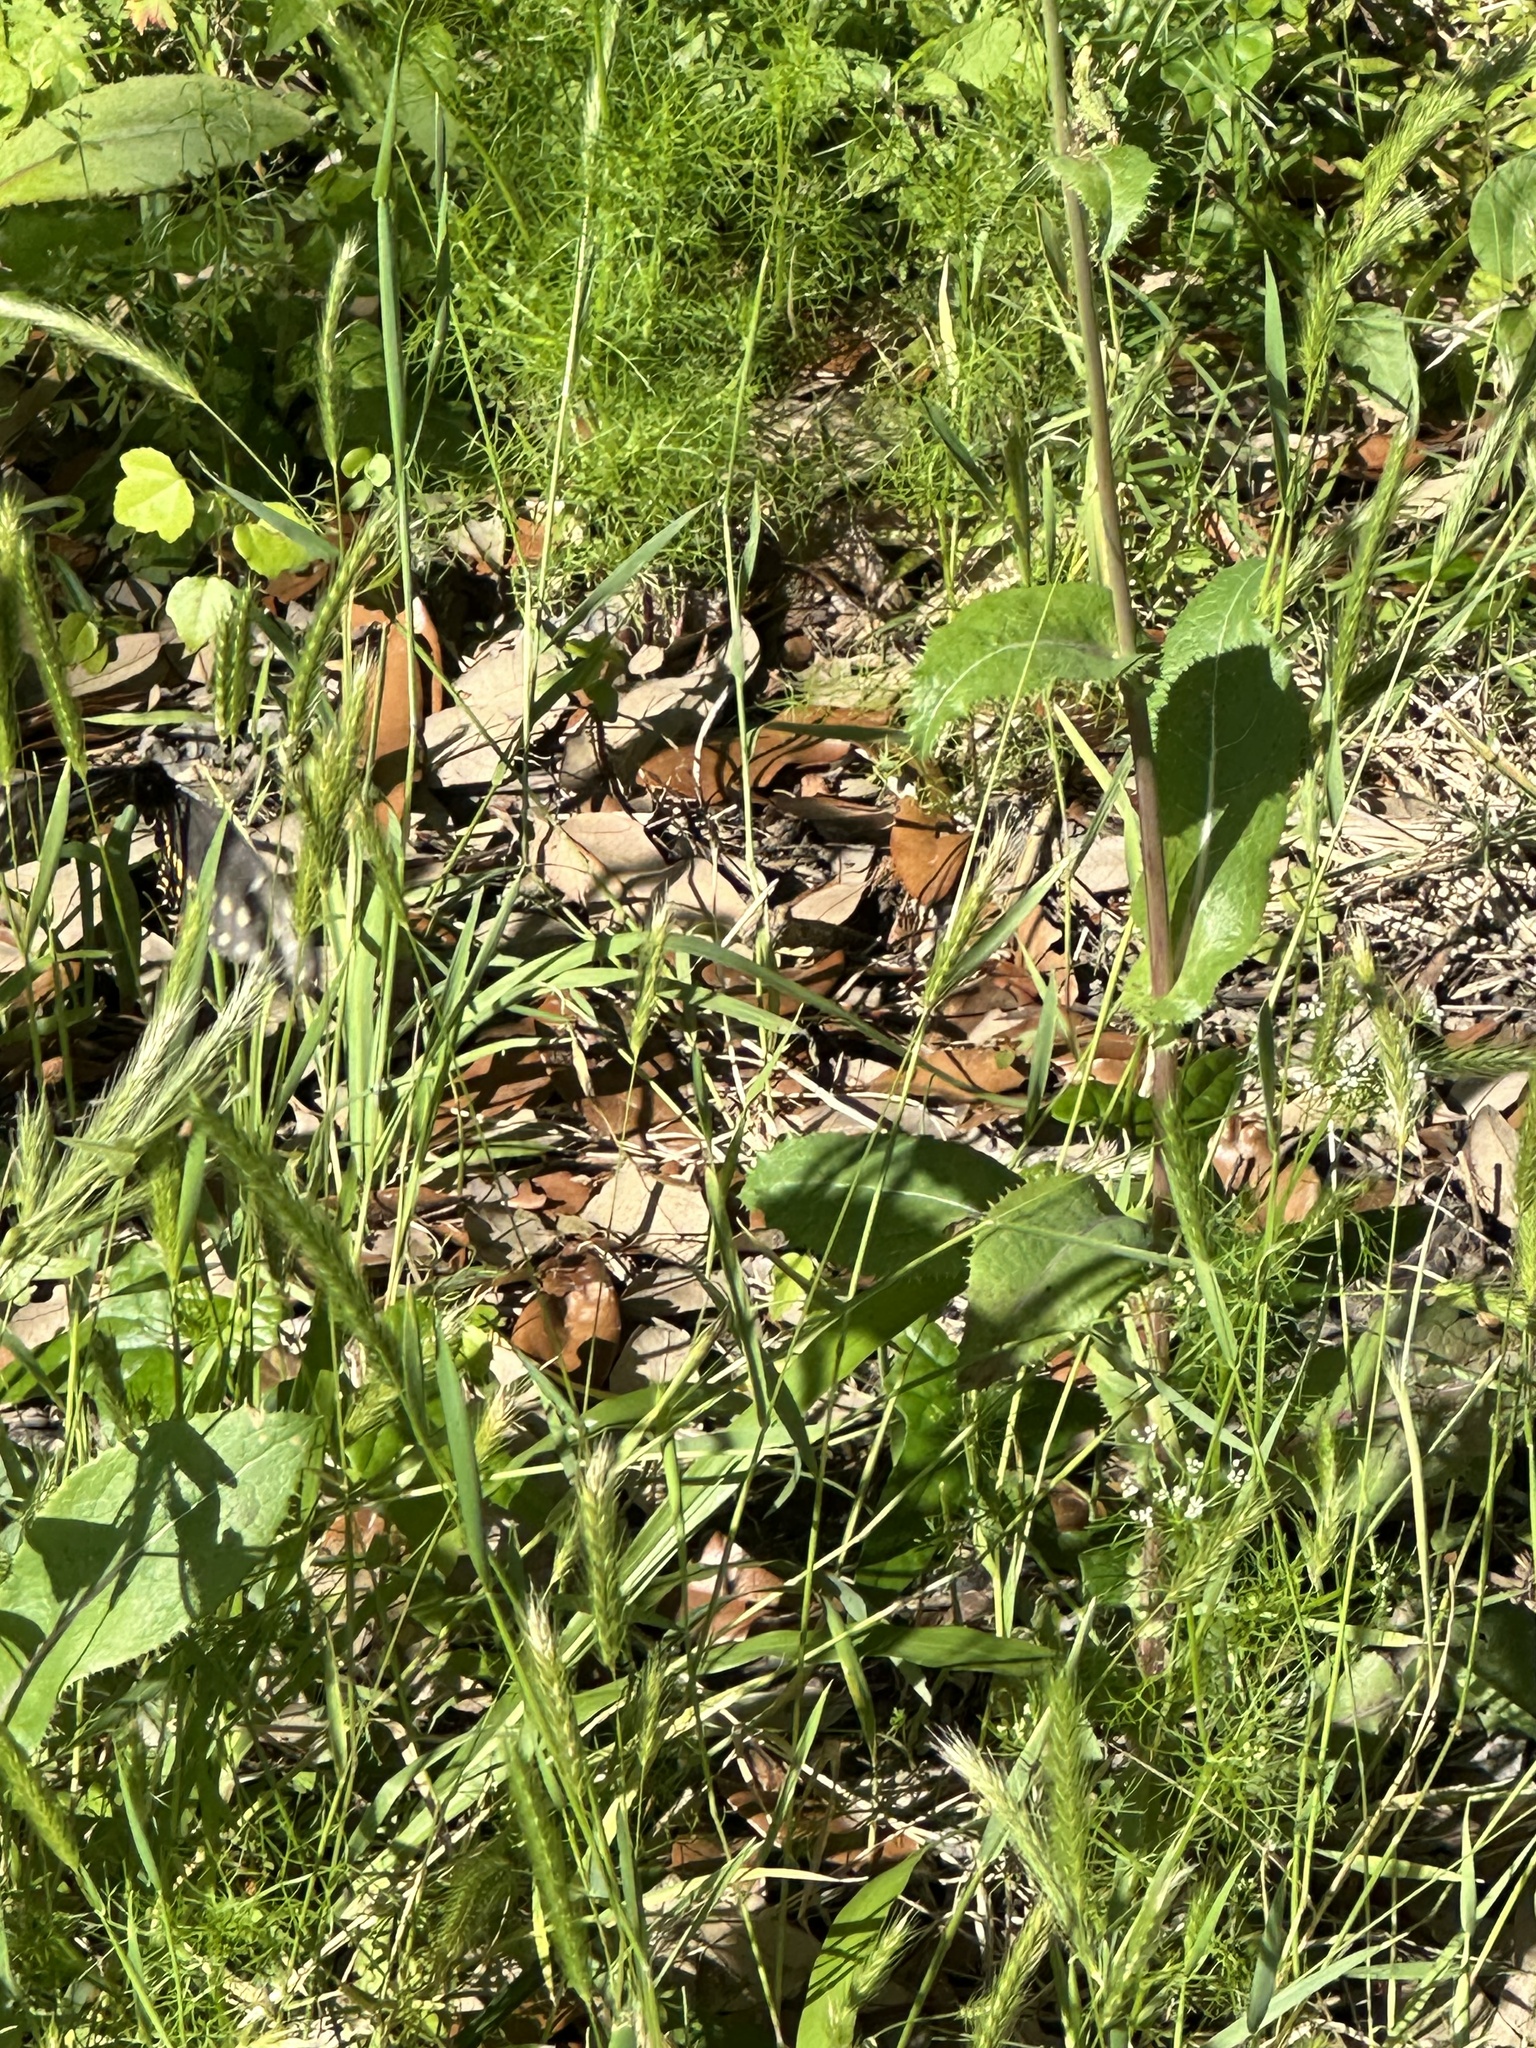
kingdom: Plantae
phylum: Tracheophyta
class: Magnoliopsida
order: Asterales
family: Asteraceae
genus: Sonchus
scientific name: Sonchus asper
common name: Prickly sow-thistle
